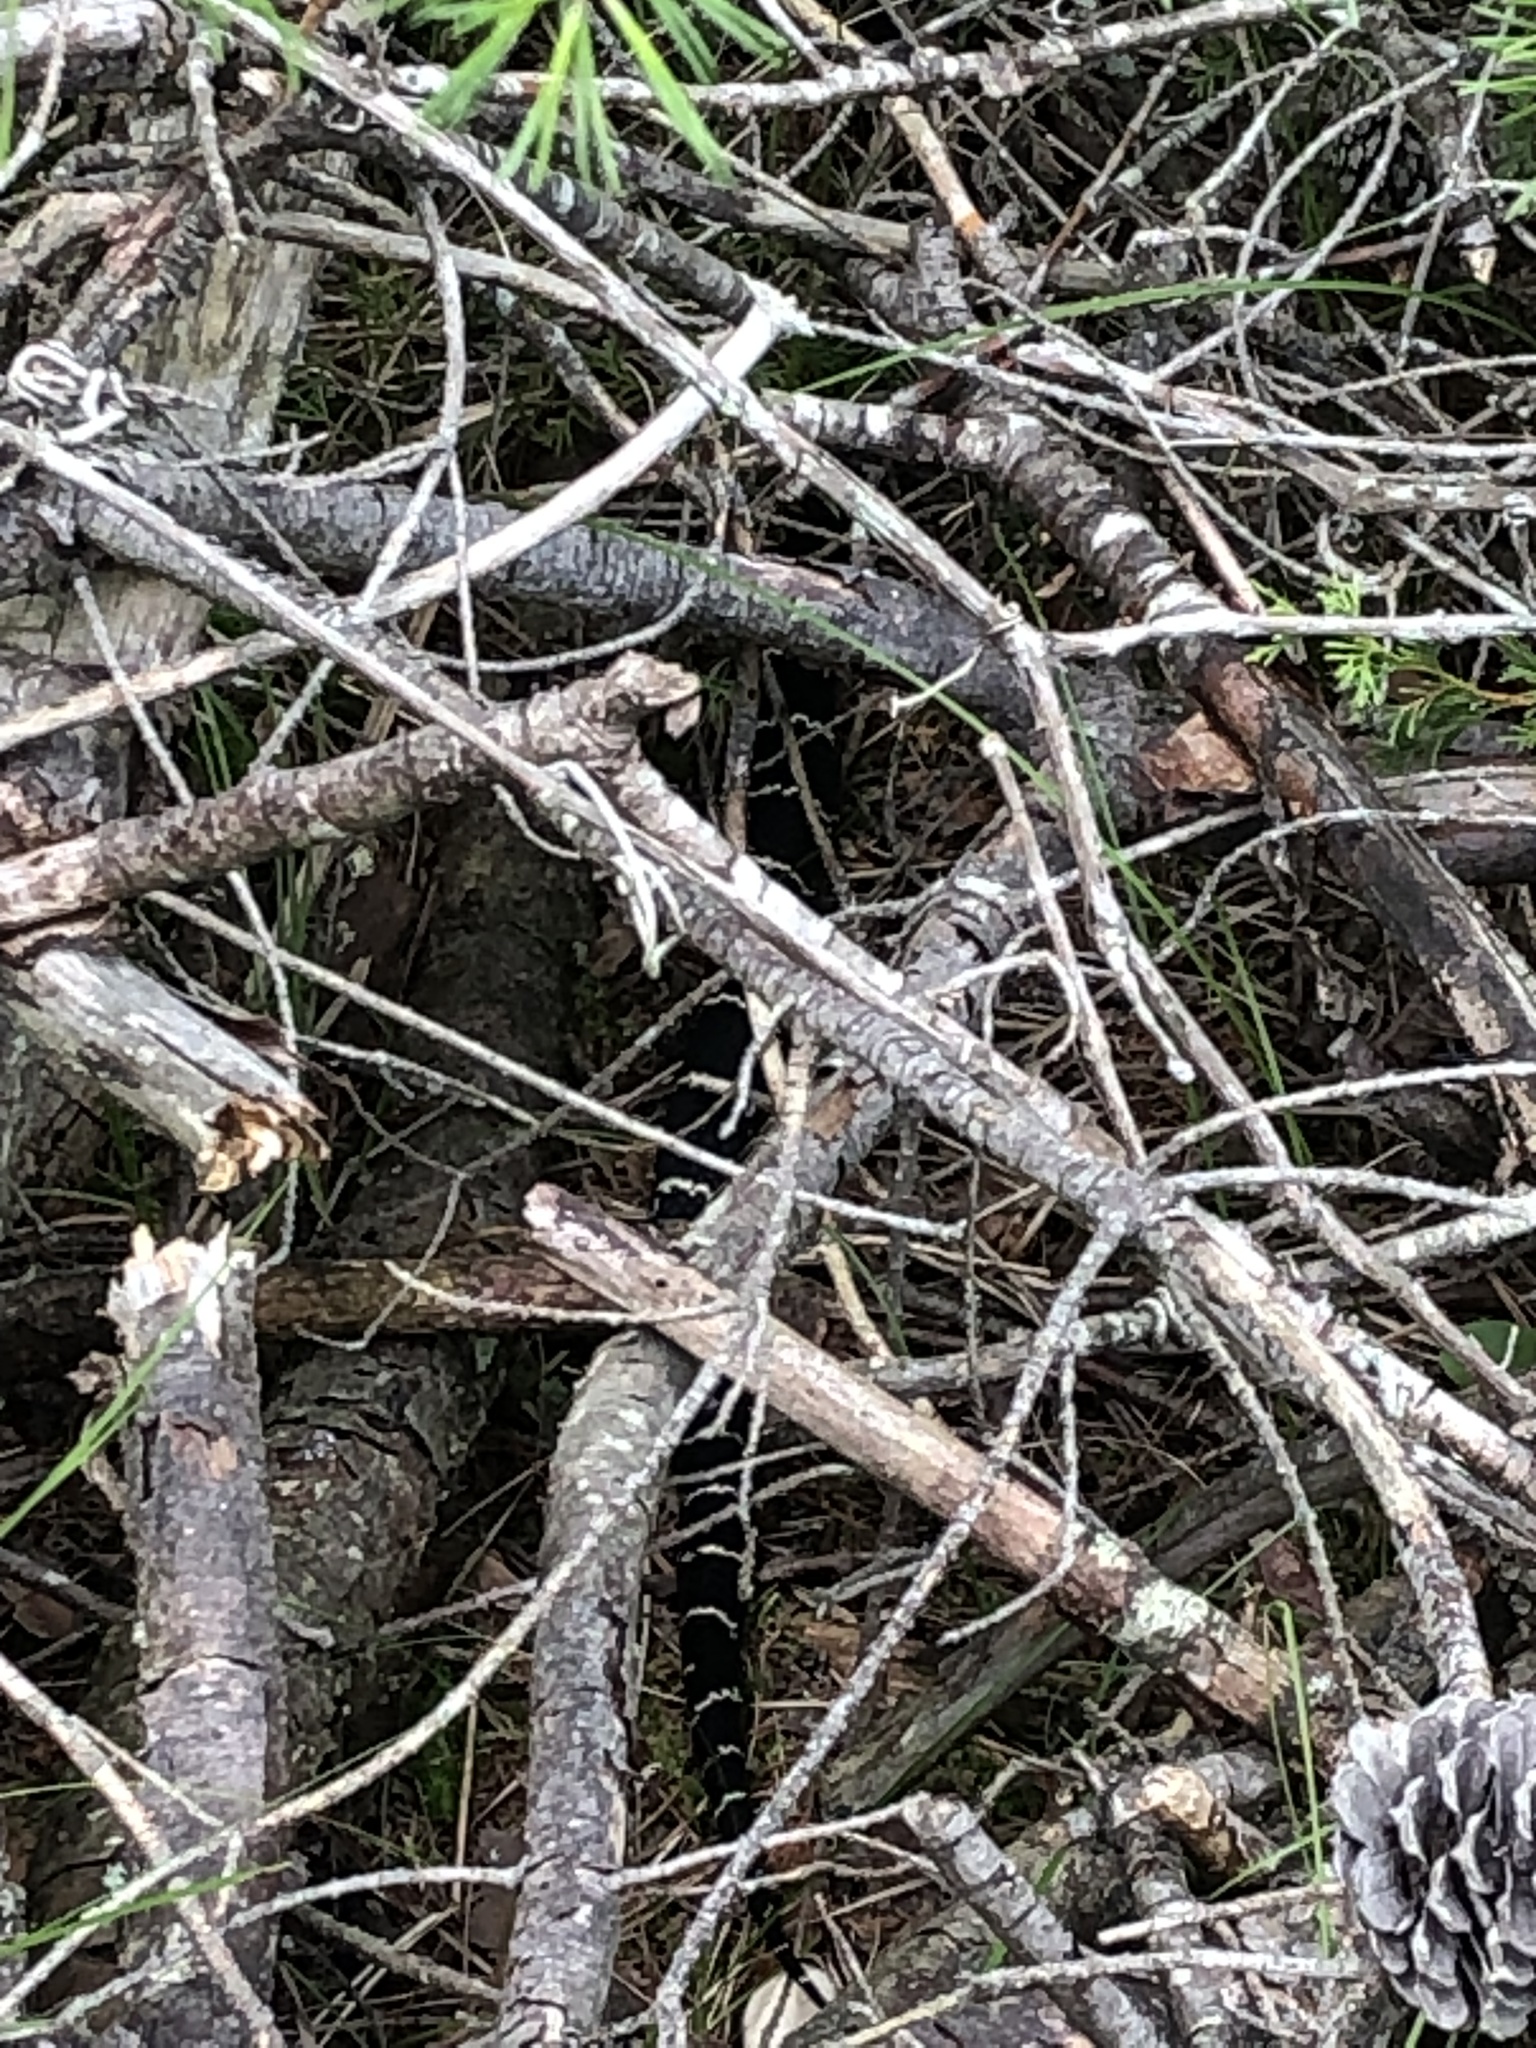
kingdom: Animalia
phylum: Chordata
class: Squamata
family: Colubridae
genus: Lampropeltis
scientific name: Lampropeltis getula
